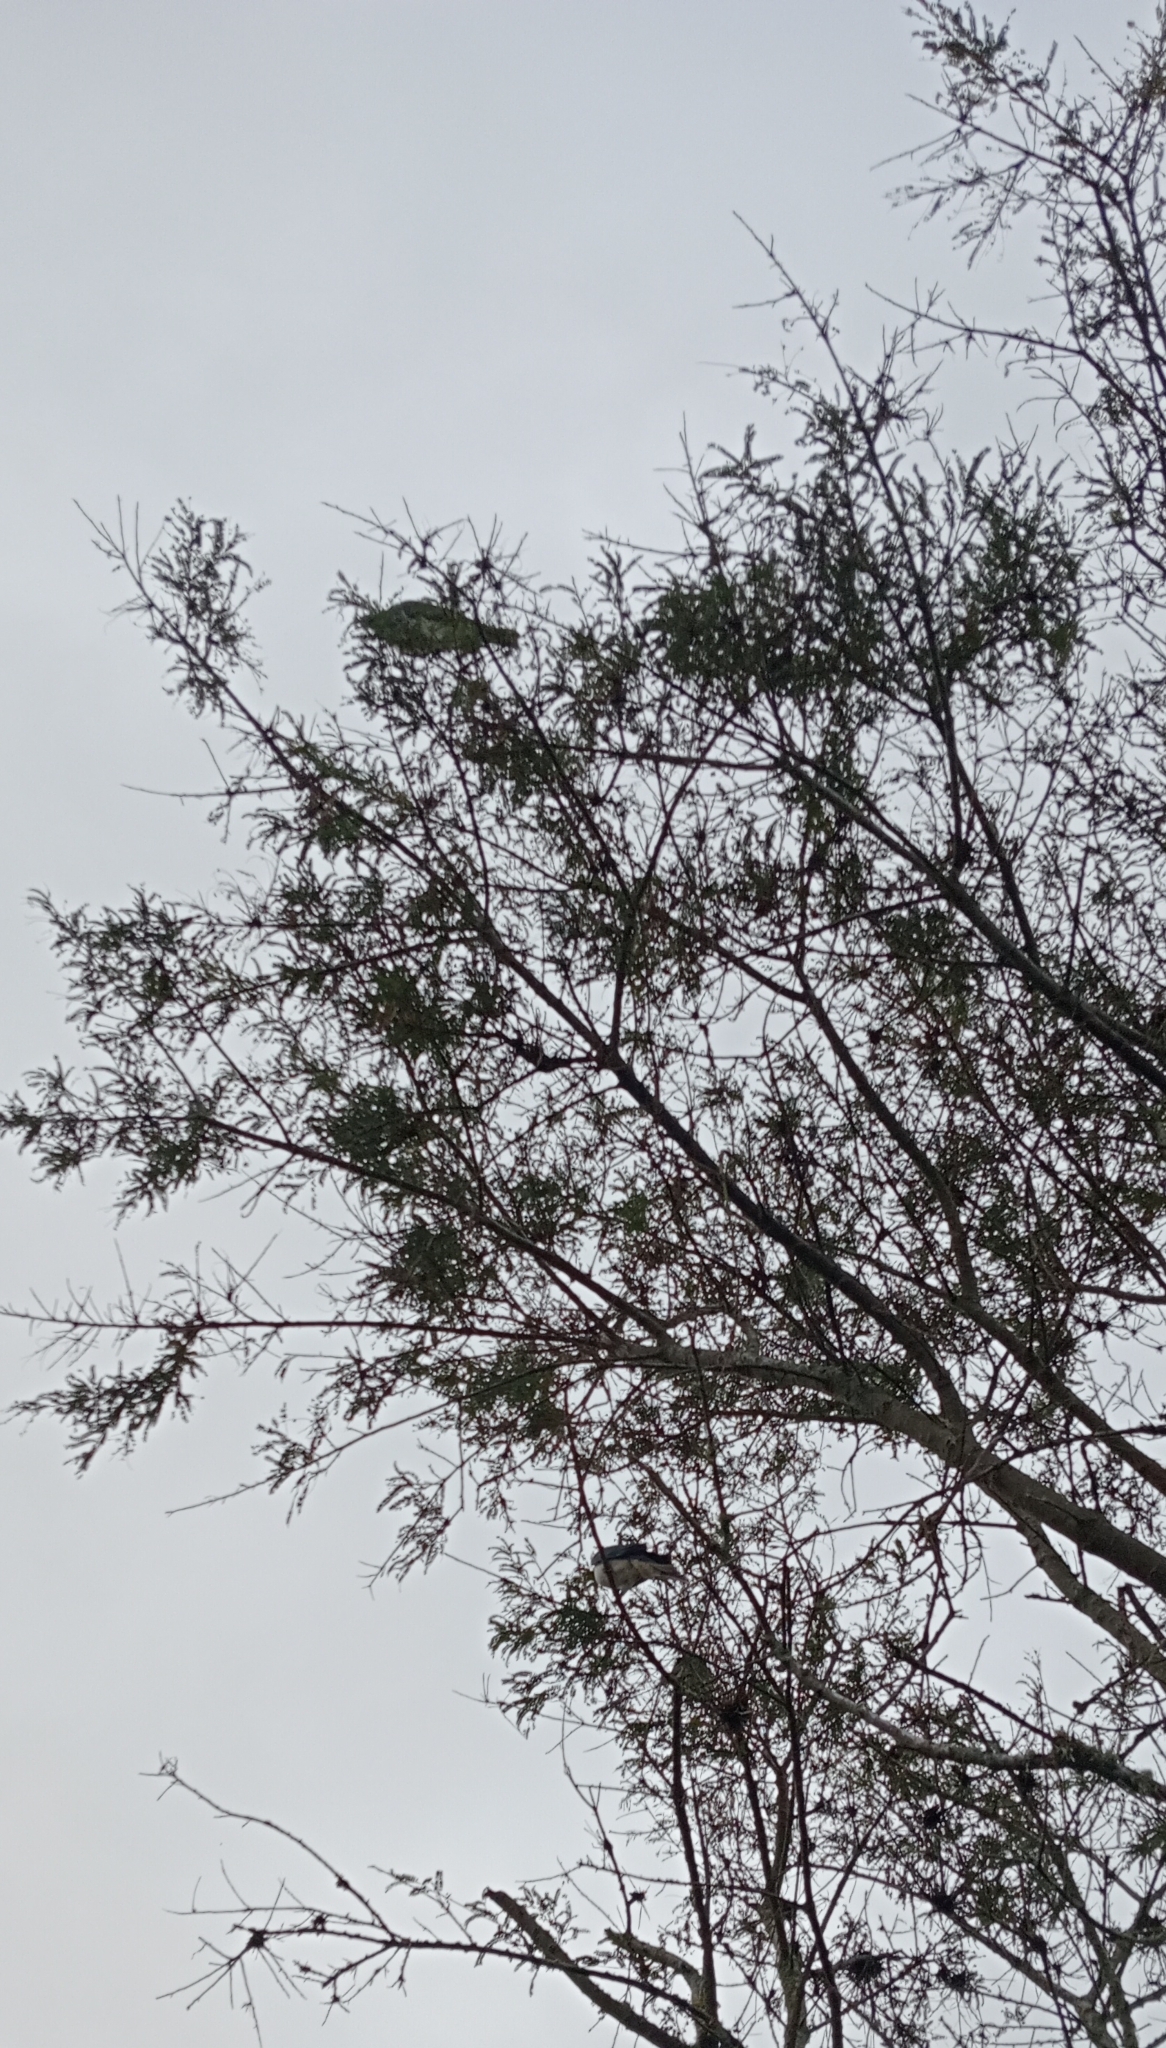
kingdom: Animalia
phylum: Chordata
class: Aves
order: Columbiformes
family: Columbidae
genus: Hemiphaga
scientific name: Hemiphaga novaeseelandiae
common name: New zealand pigeon
